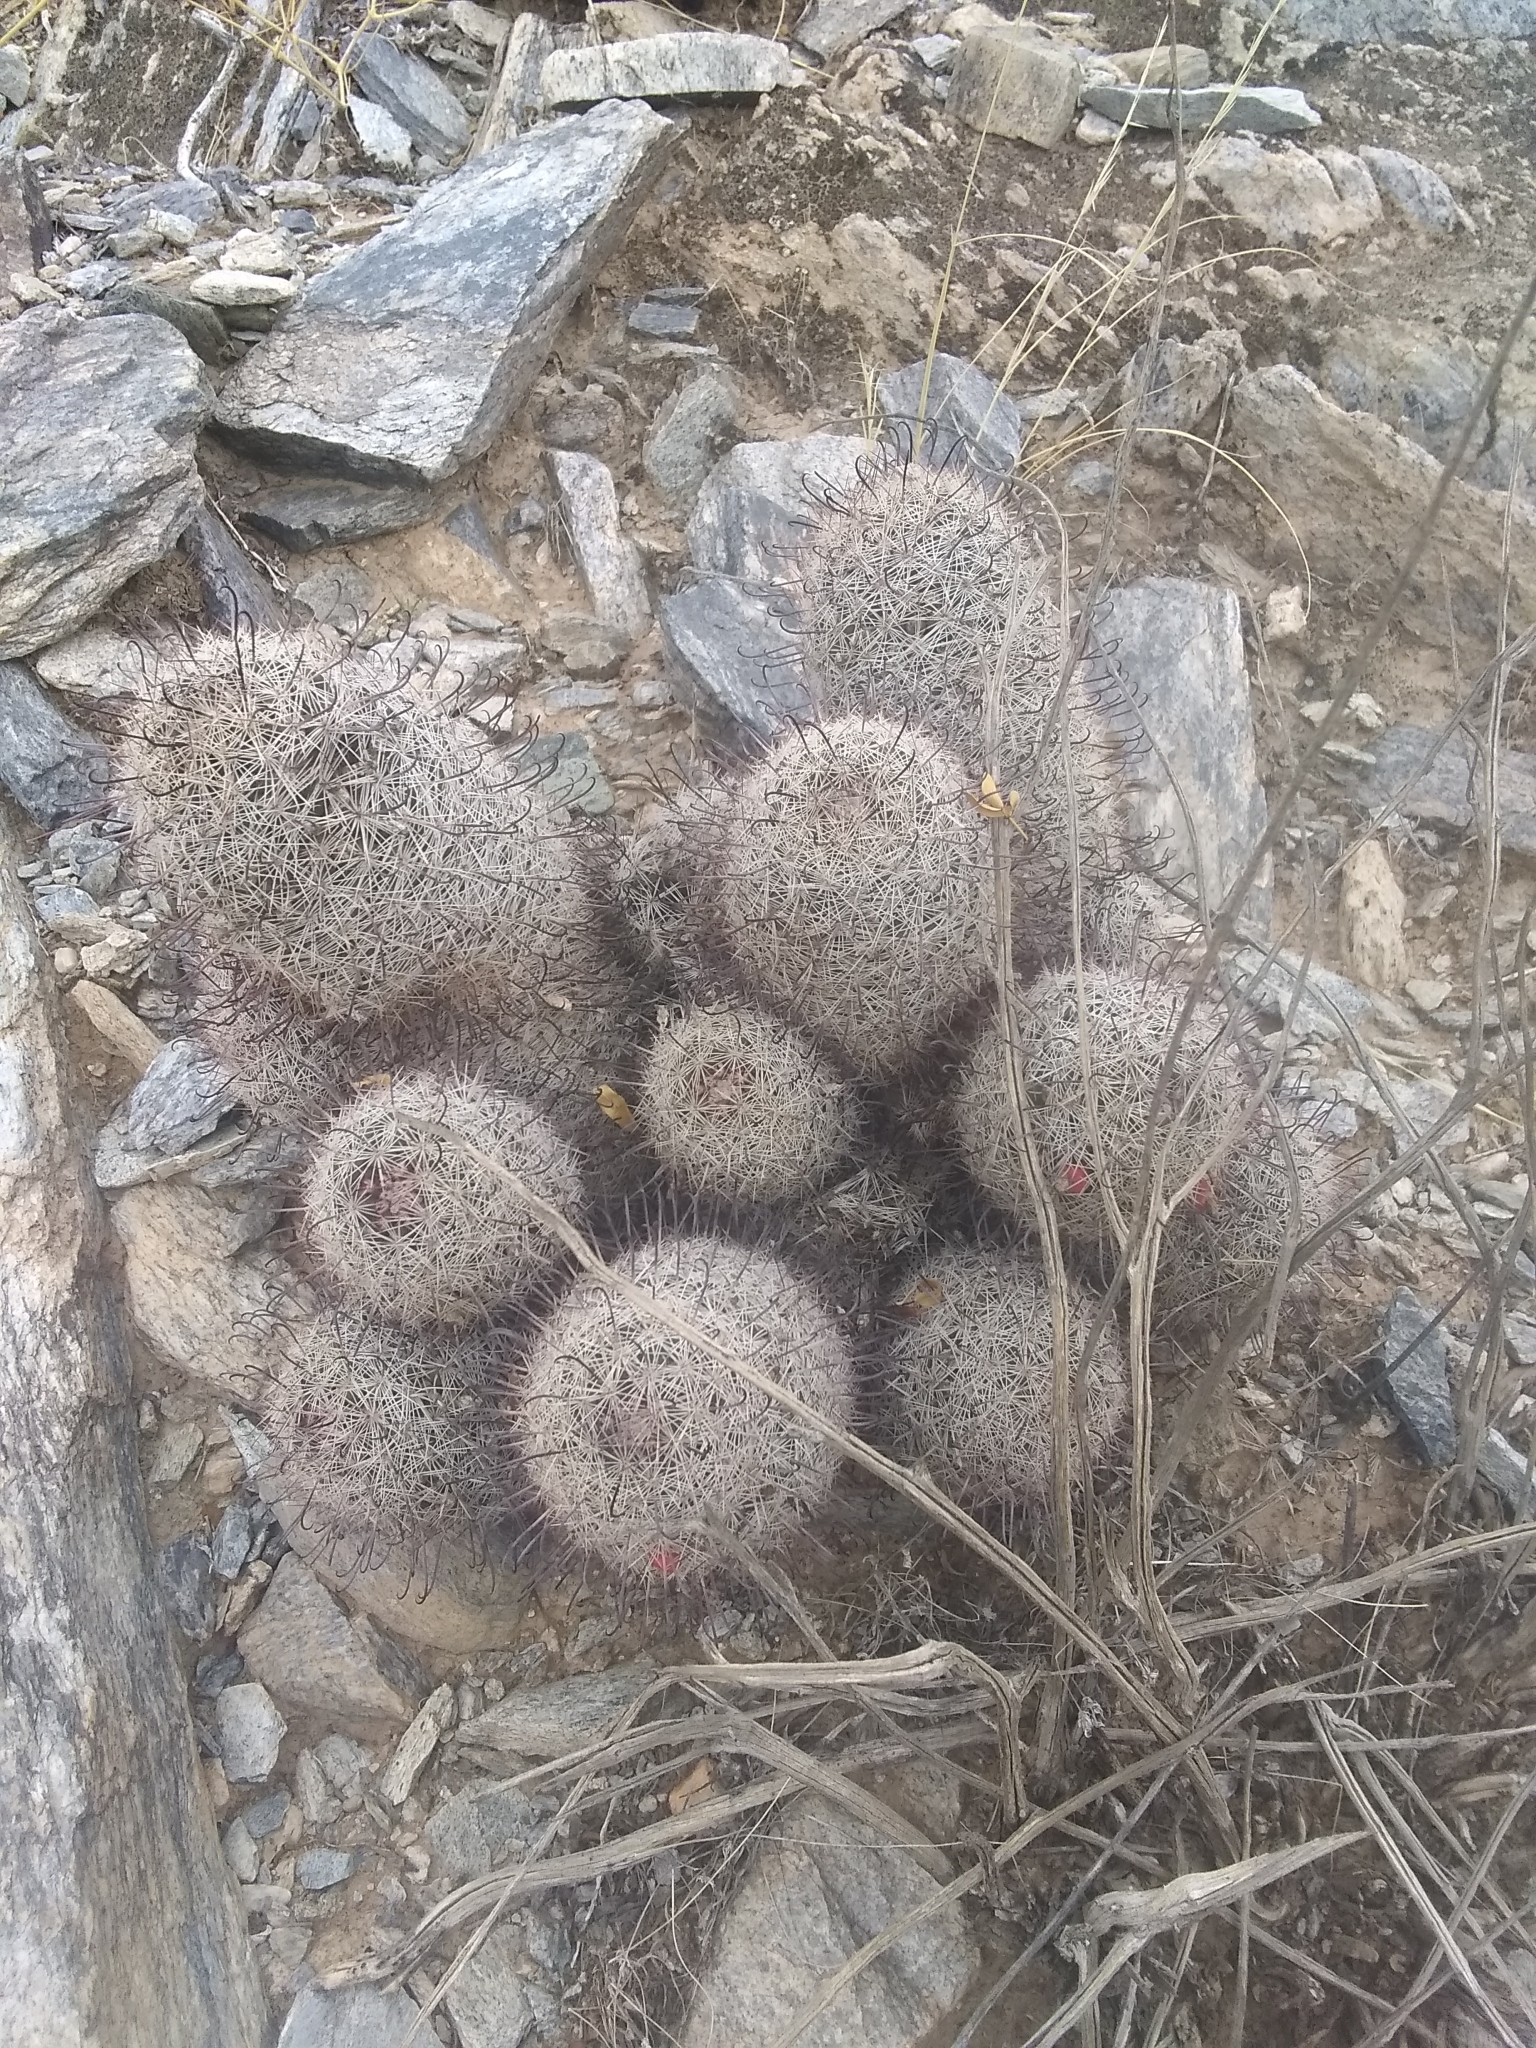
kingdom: Plantae
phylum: Tracheophyta
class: Magnoliopsida
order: Caryophyllales
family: Cactaceae
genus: Cochemiea
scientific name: Cochemiea grahamii
